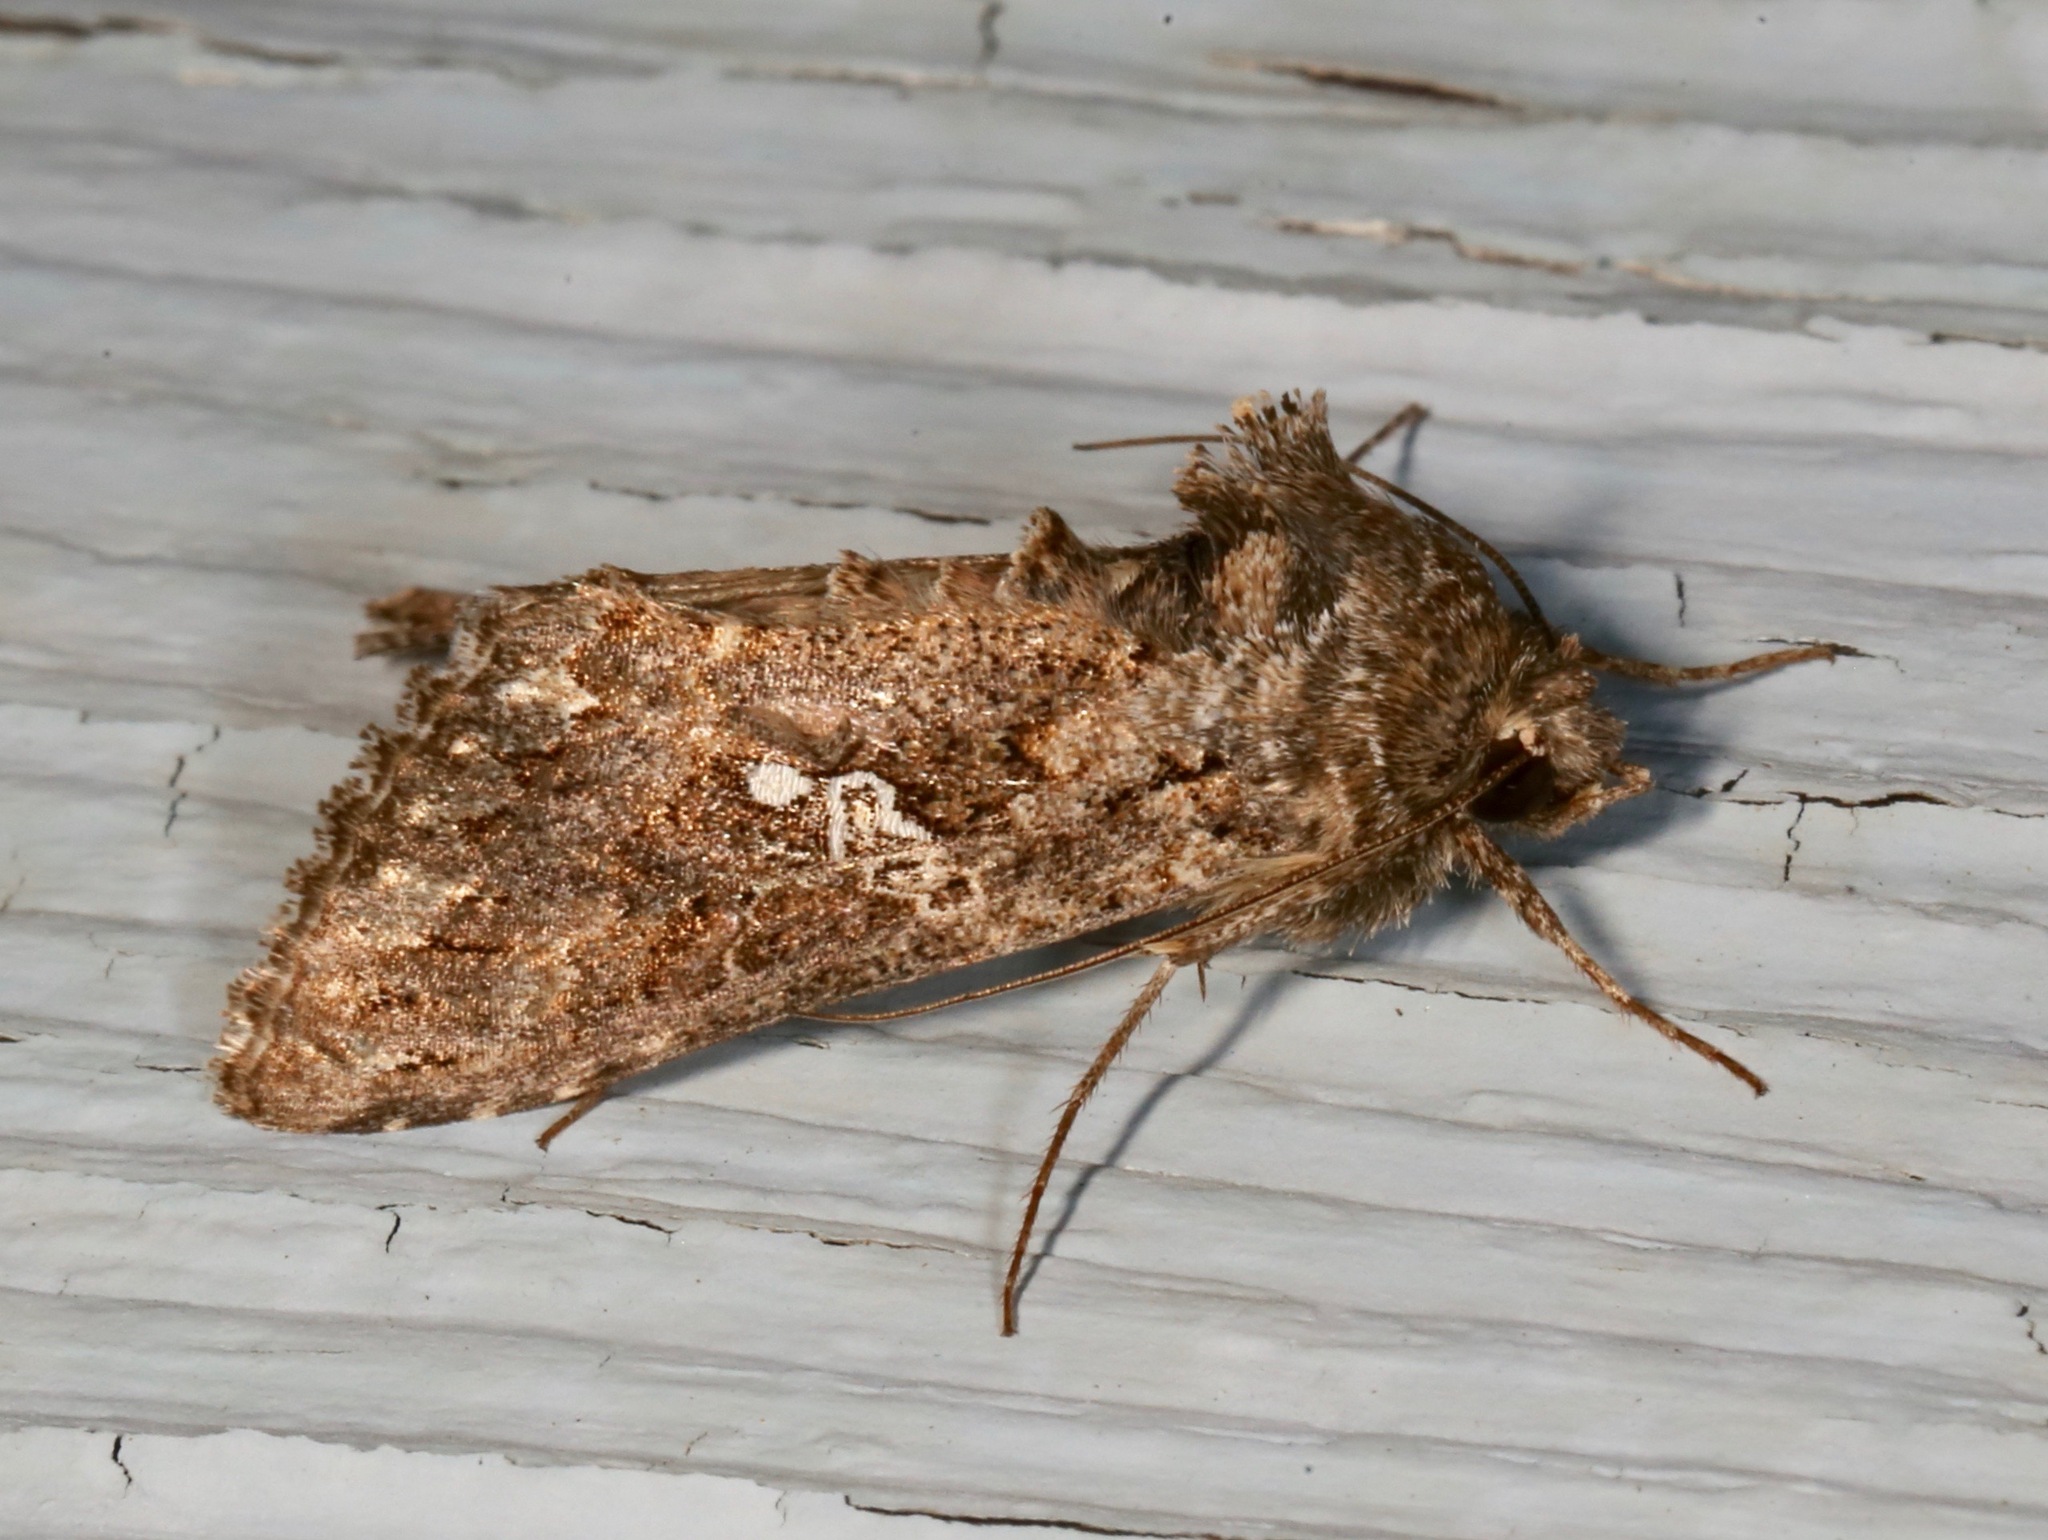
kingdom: Animalia
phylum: Arthropoda
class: Insecta
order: Lepidoptera
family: Noctuidae
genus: Trichoplusia
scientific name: Trichoplusia ni
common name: Ni moth
